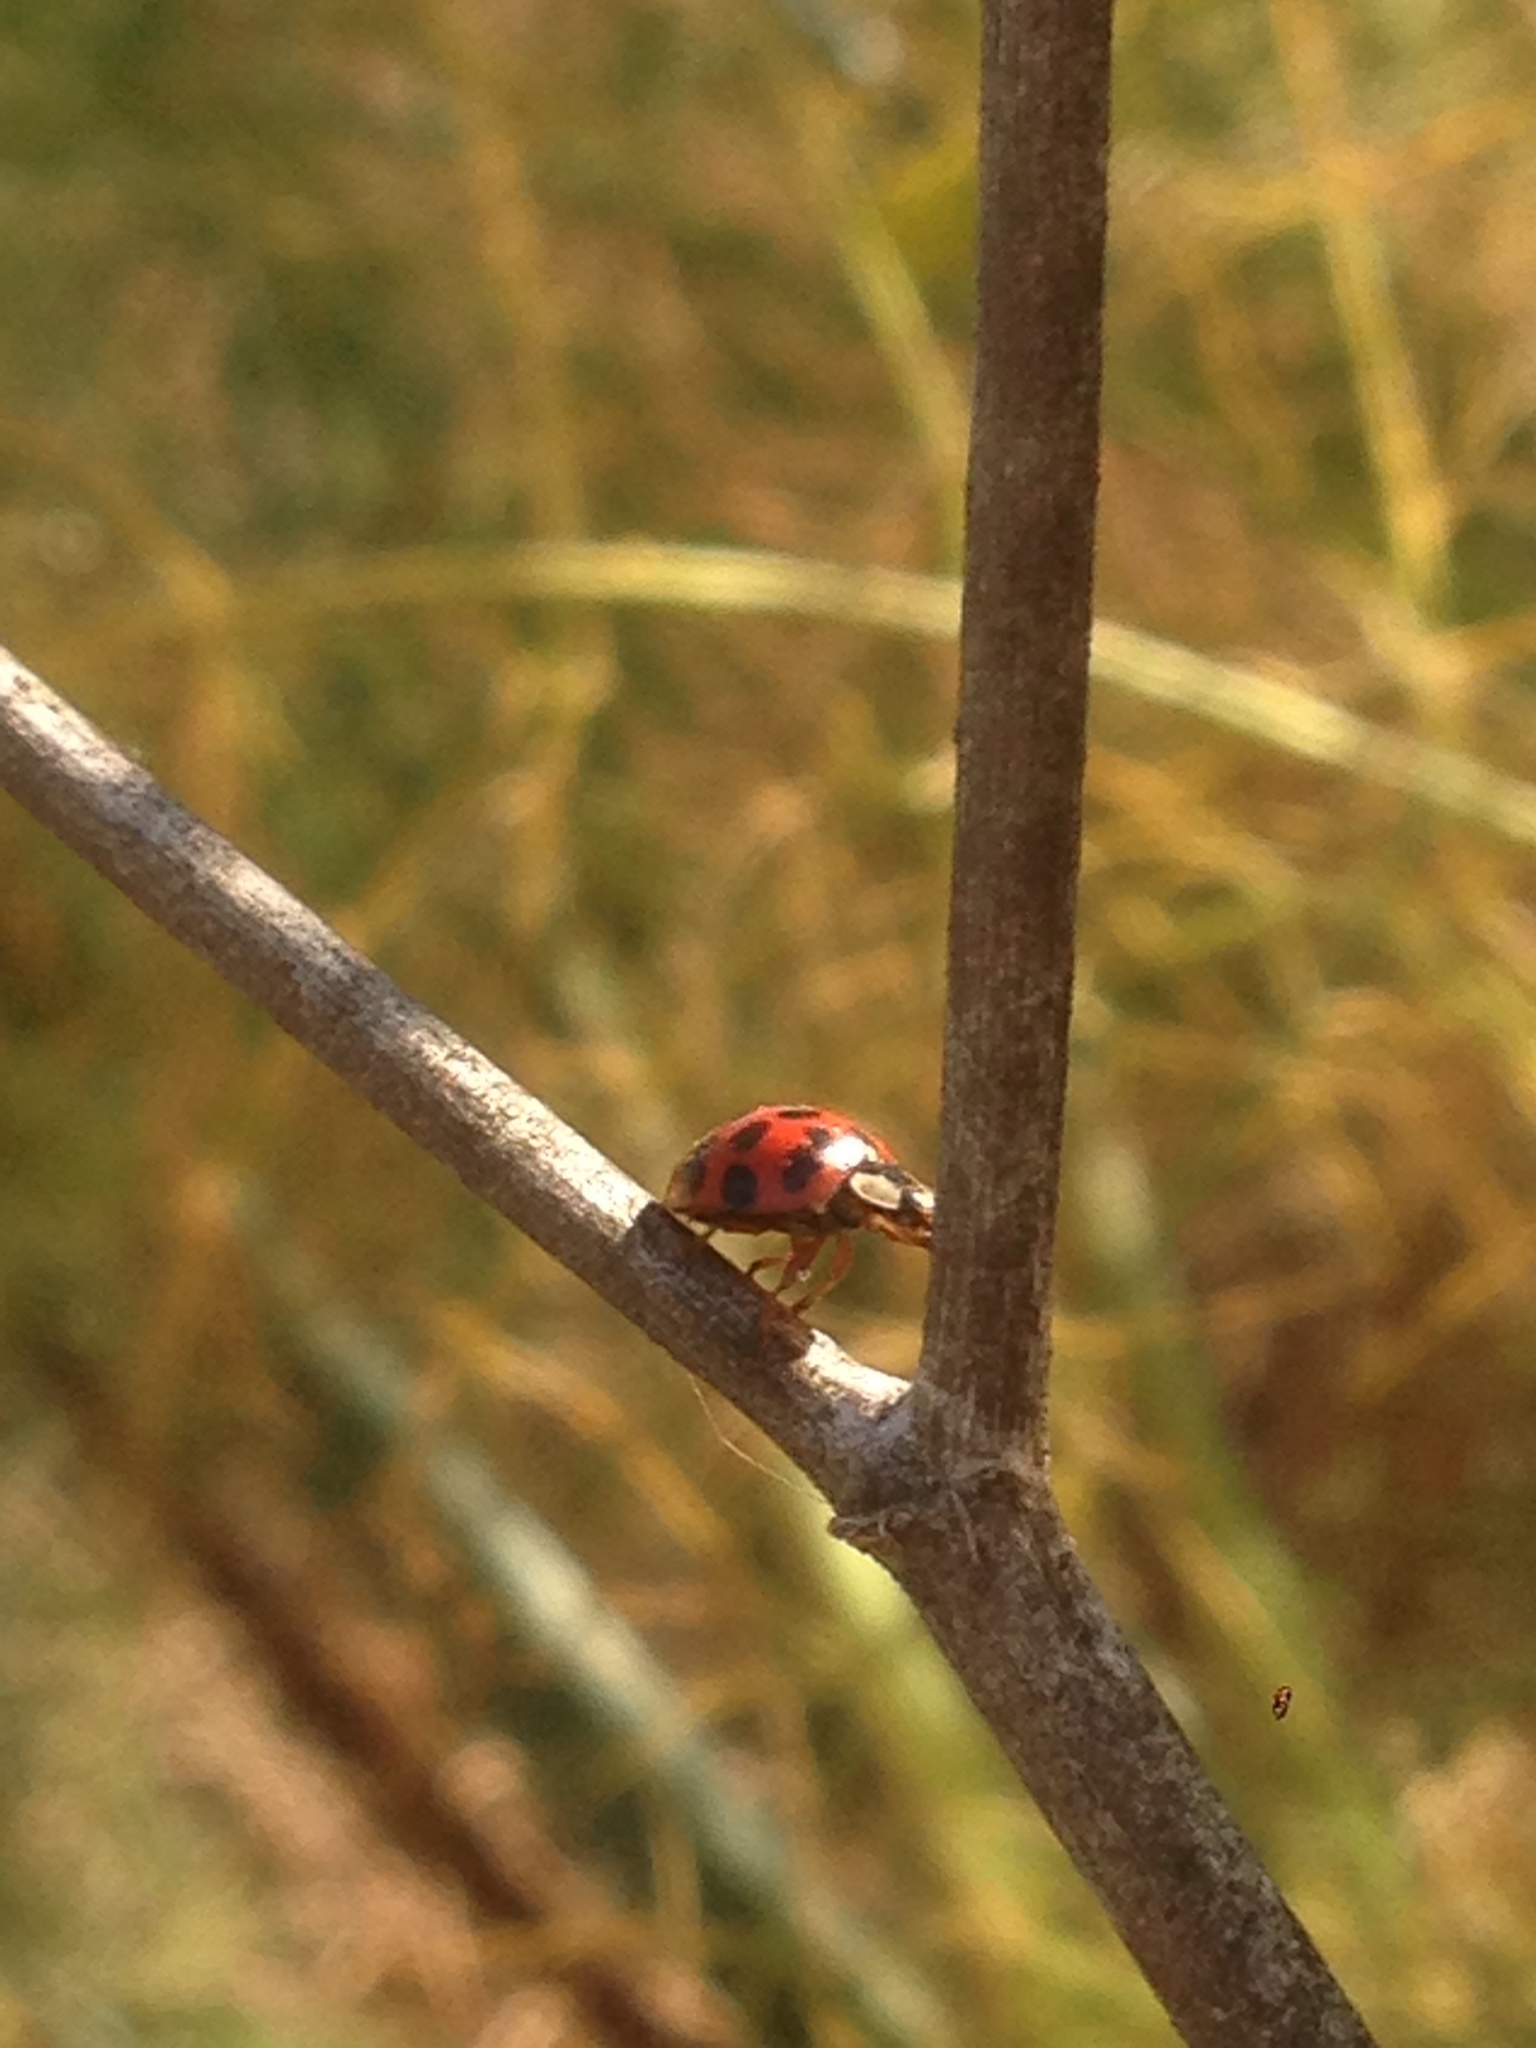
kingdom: Animalia
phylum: Arthropoda
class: Insecta
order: Coleoptera
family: Coccinellidae
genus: Harmonia
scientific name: Harmonia axyridis
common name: Harlequin ladybird
